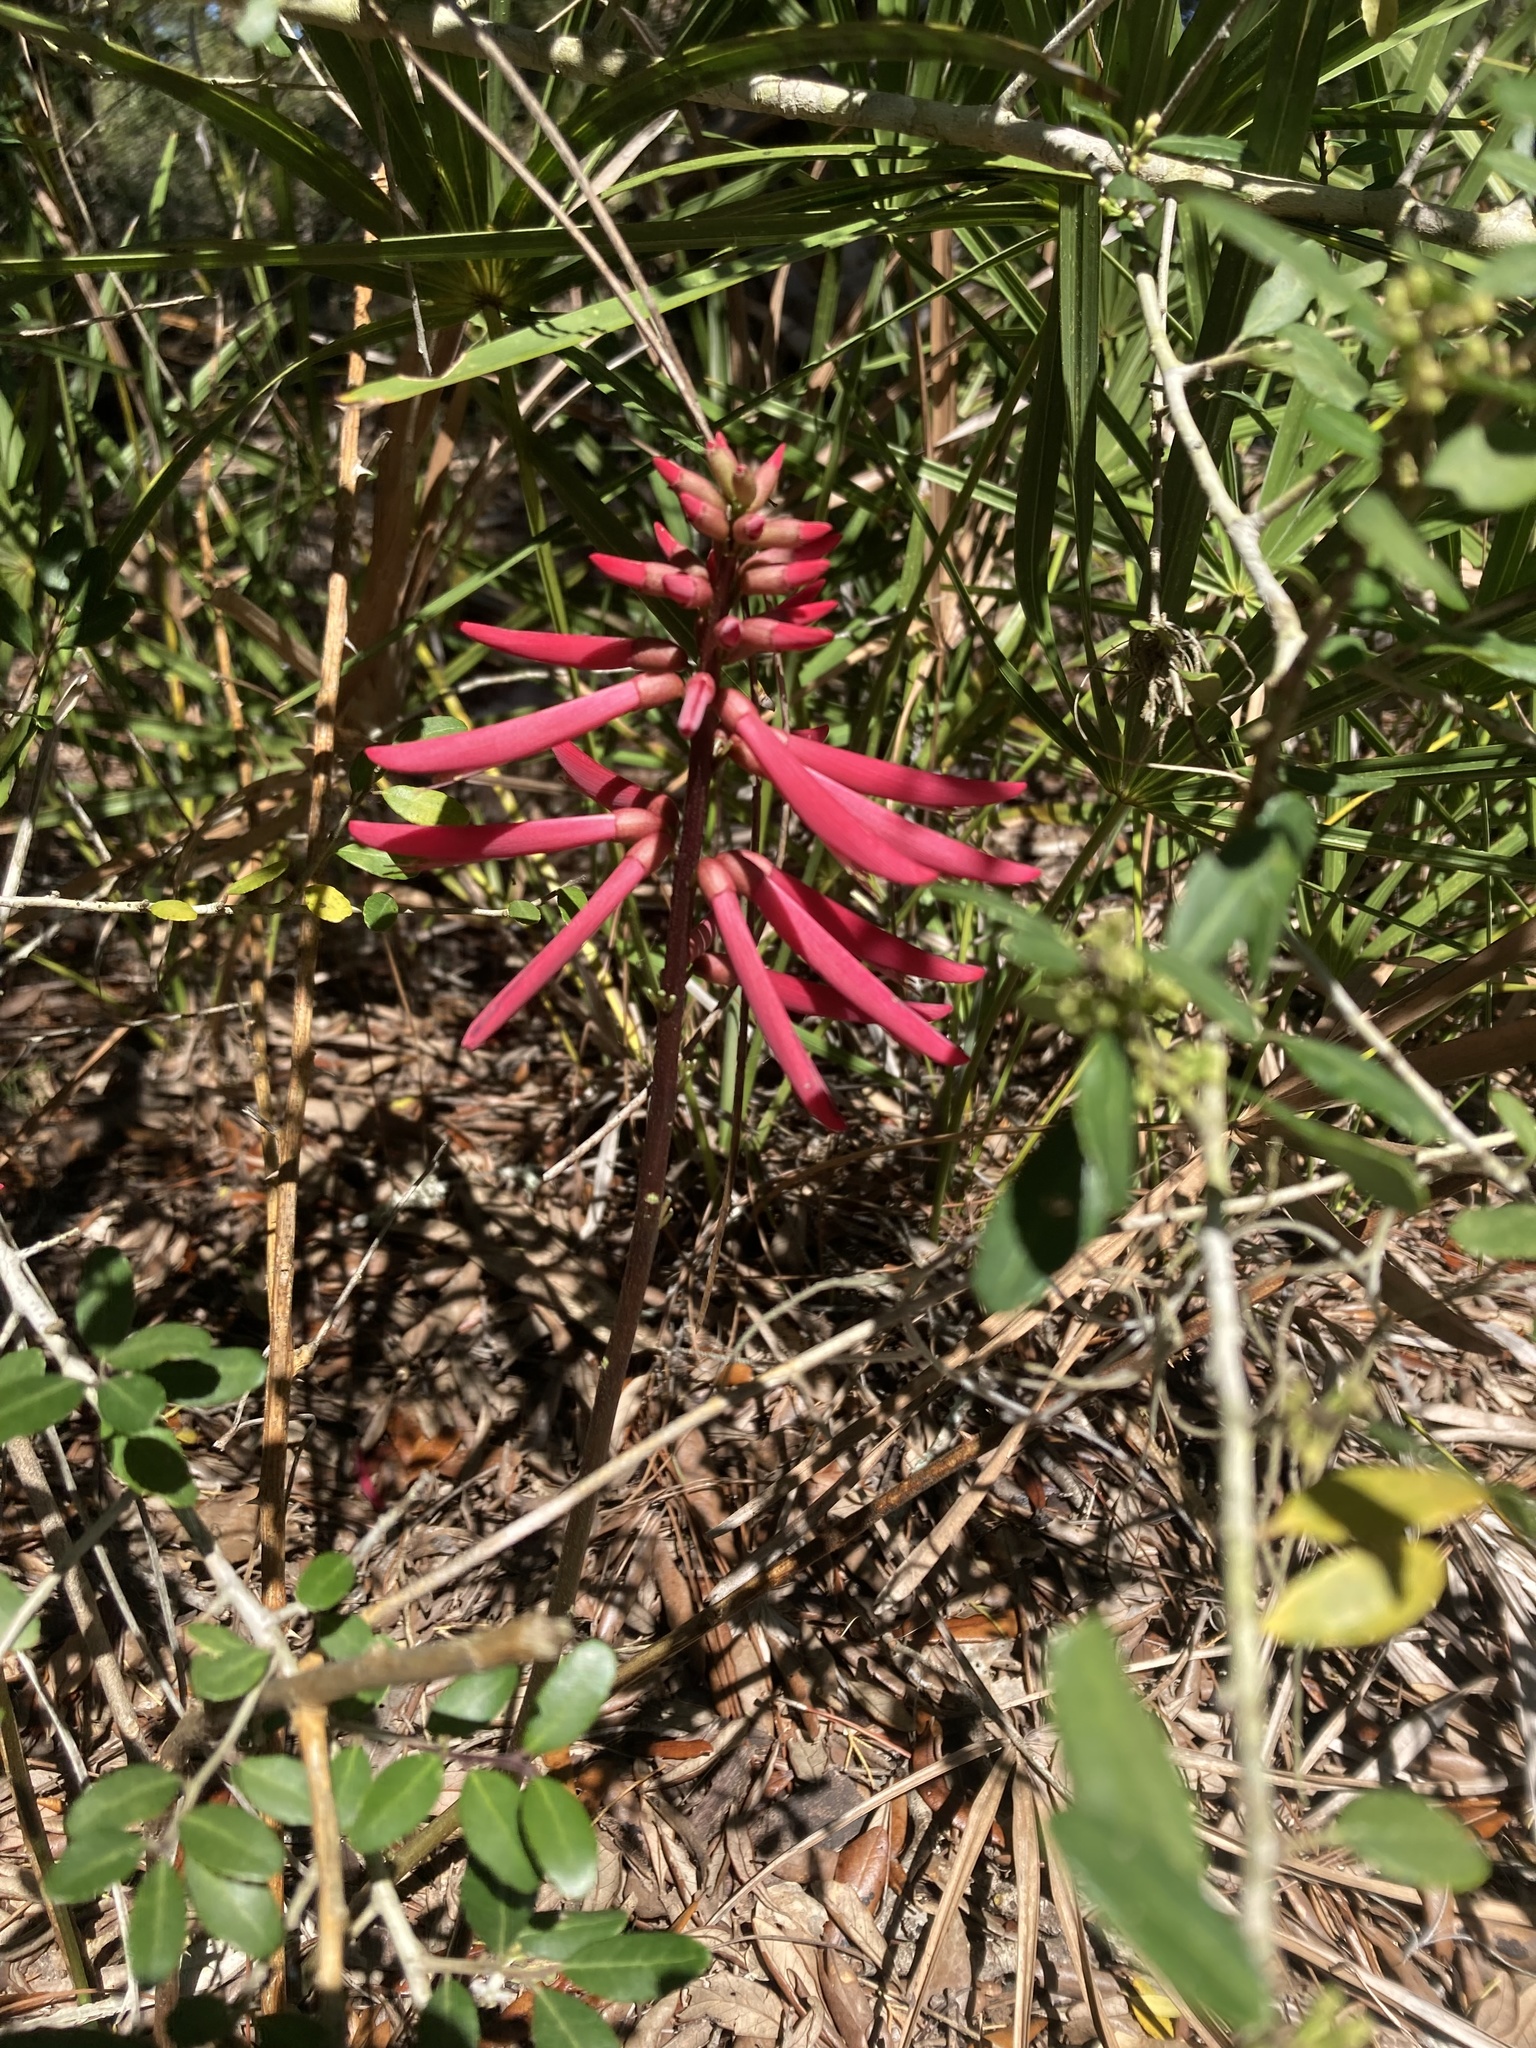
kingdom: Plantae
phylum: Tracheophyta
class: Magnoliopsida
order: Fabales
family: Fabaceae
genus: Erythrina
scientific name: Erythrina herbacea
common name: Coral-bean
